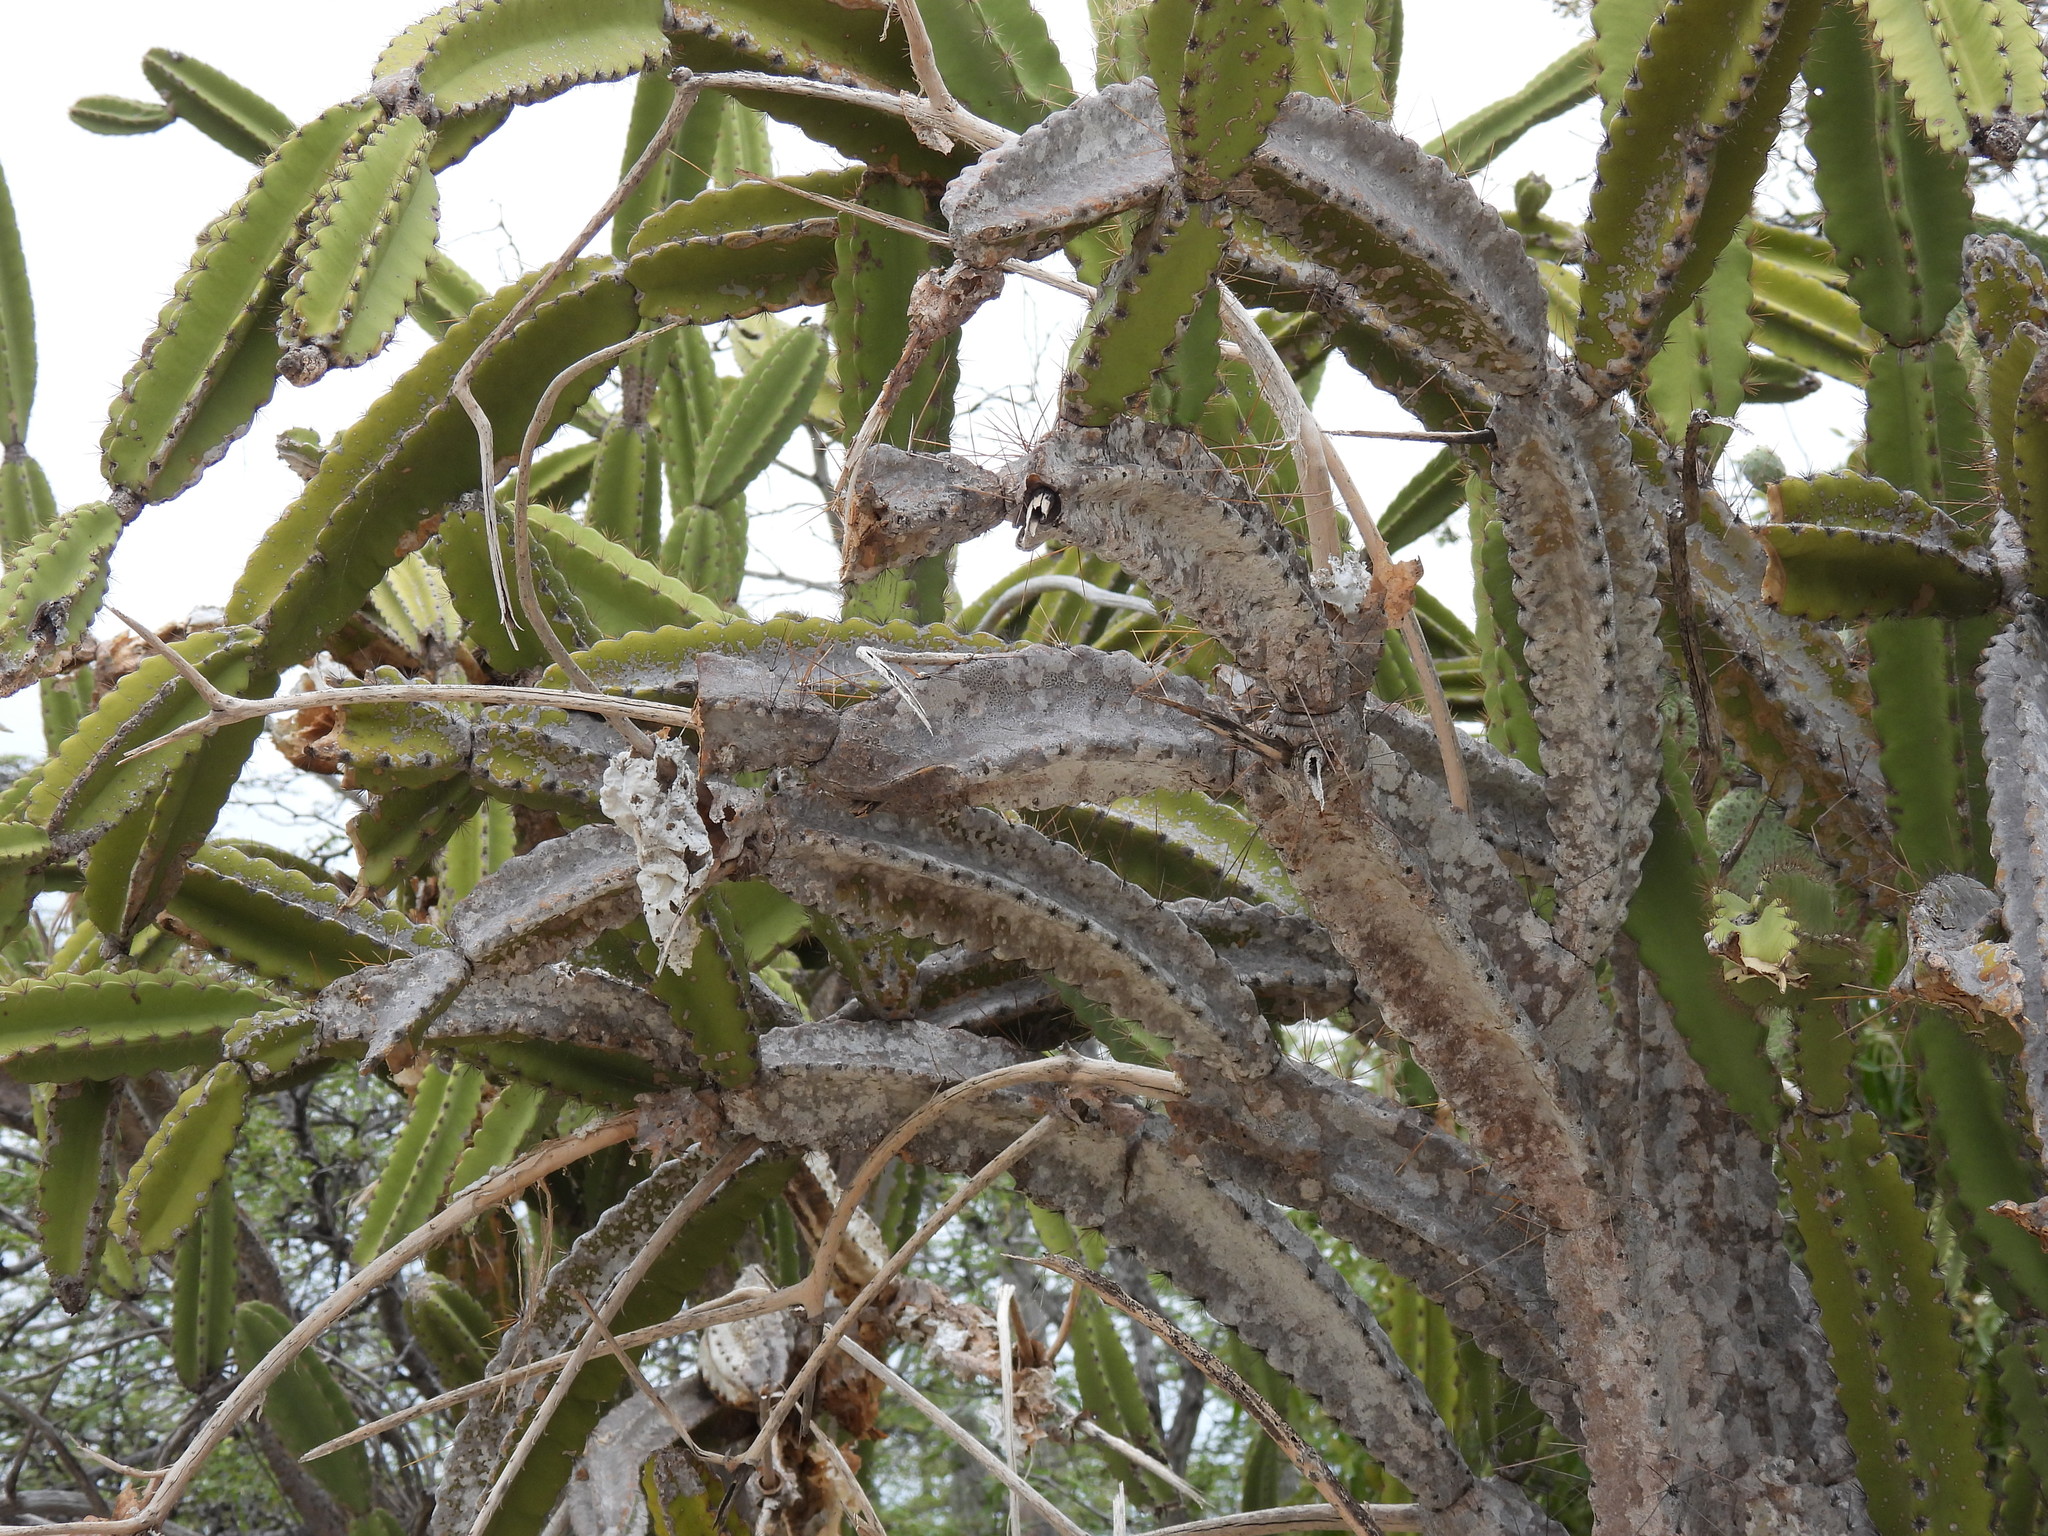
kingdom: Plantae
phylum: Tracheophyta
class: Magnoliopsida
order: Caryophyllales
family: Cactaceae
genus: Leptocereus
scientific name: Leptocereus paniculatus
